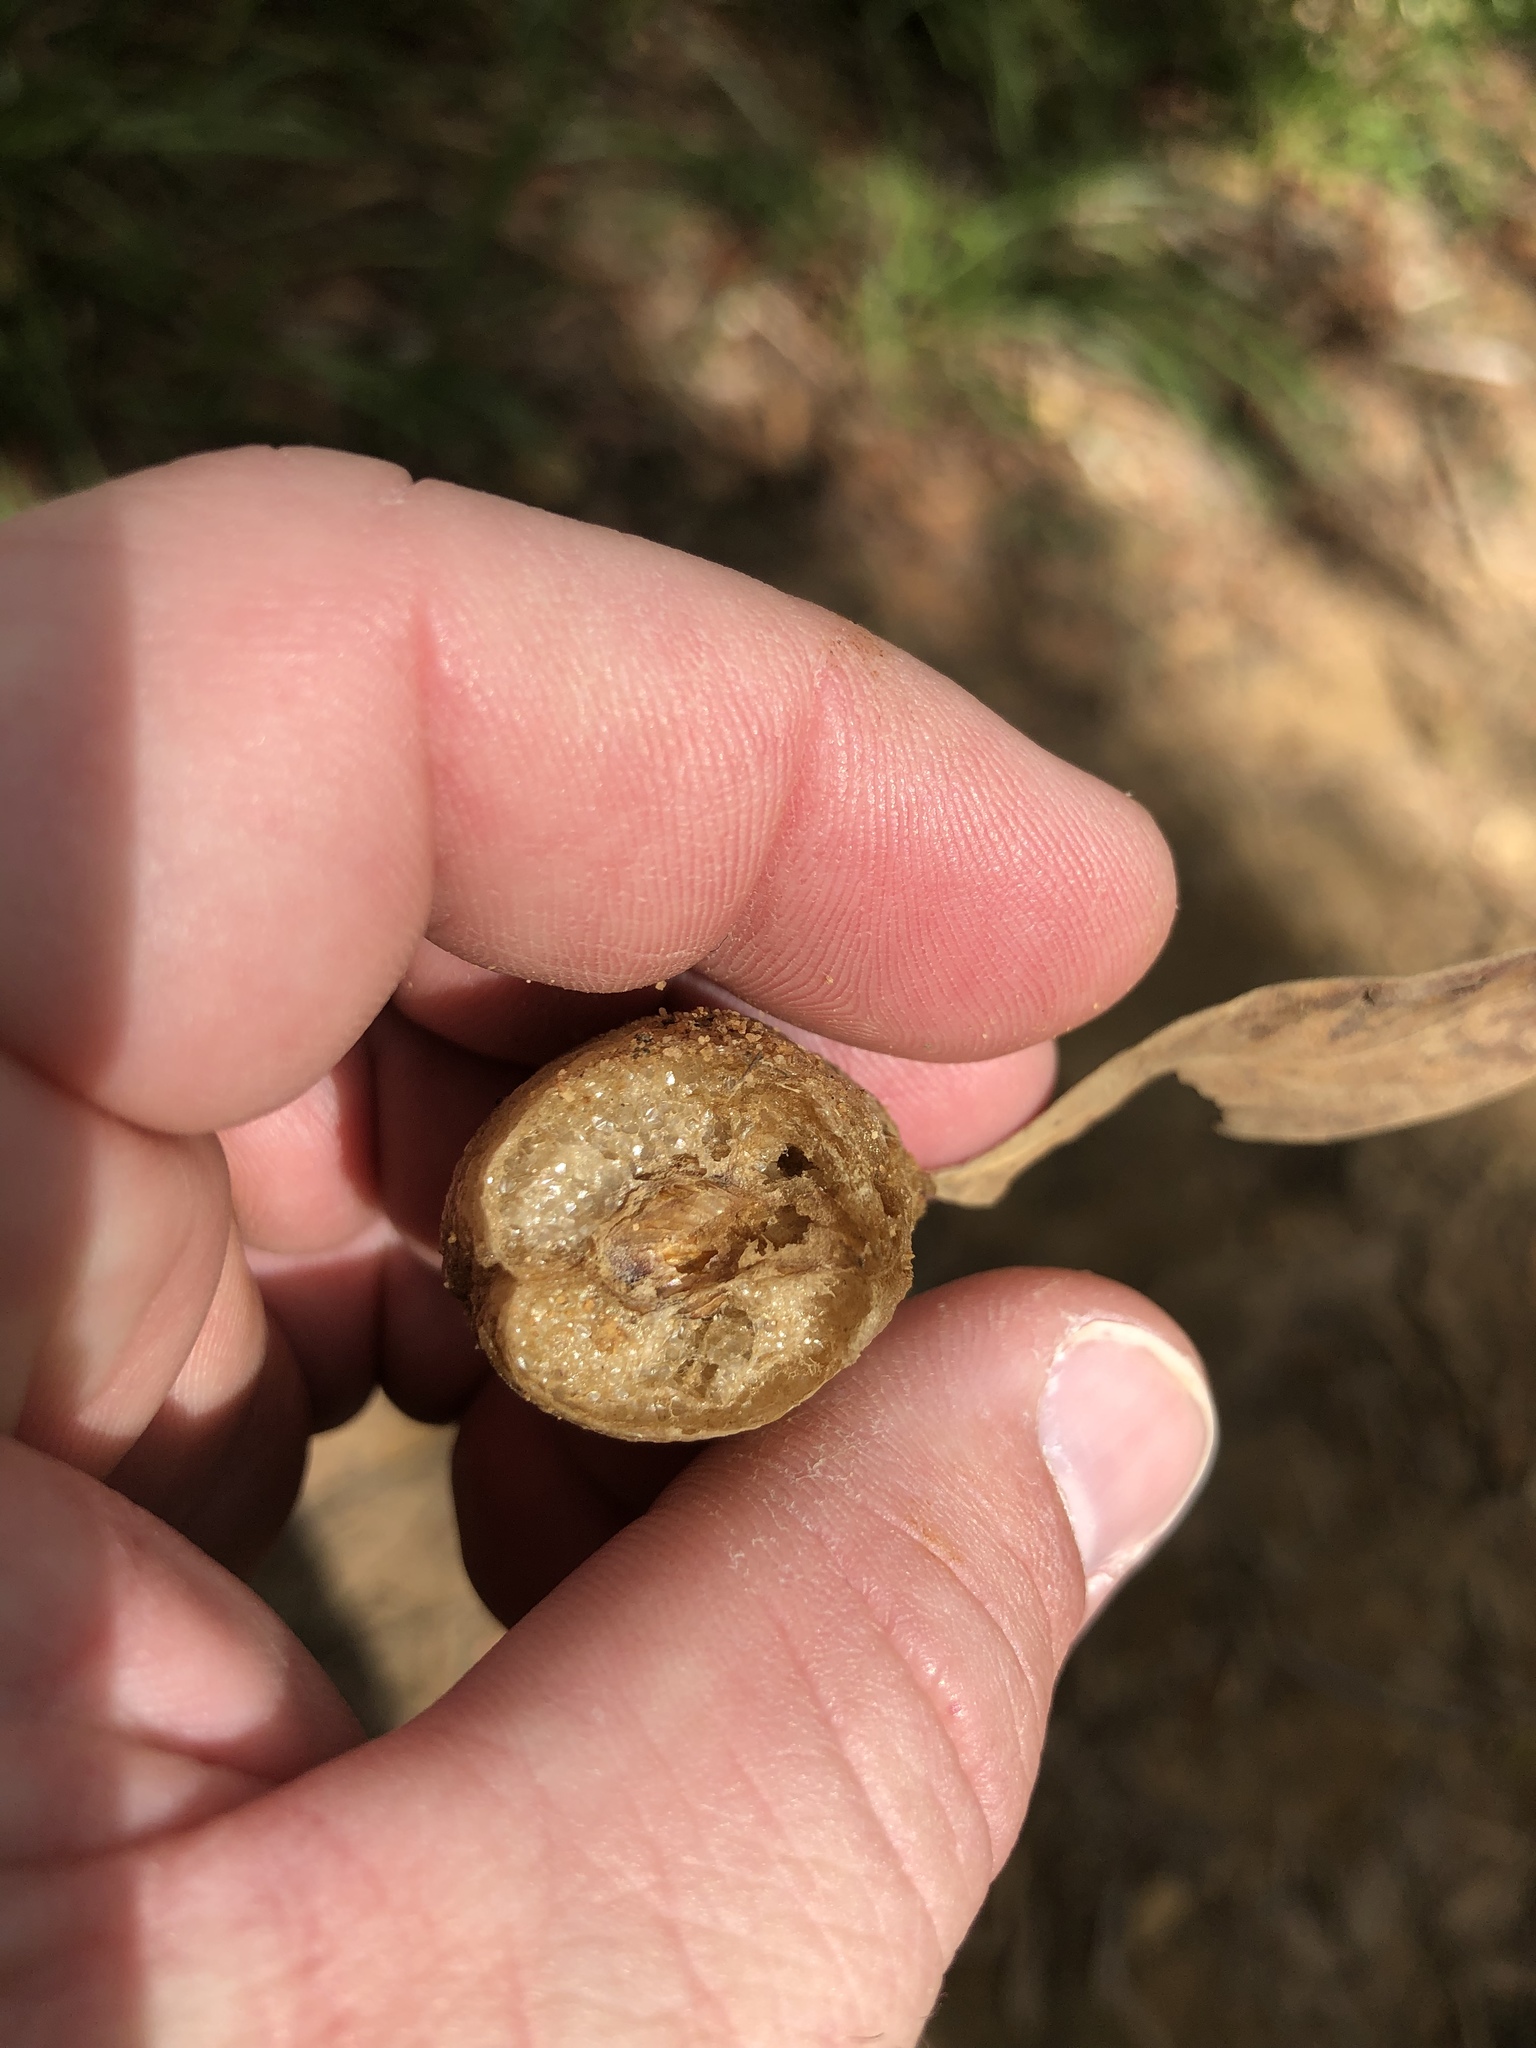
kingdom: Animalia
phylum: Arthropoda
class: Insecta
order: Mantodea
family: Mantidae
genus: Archimantis
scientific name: Archimantis latistyla
